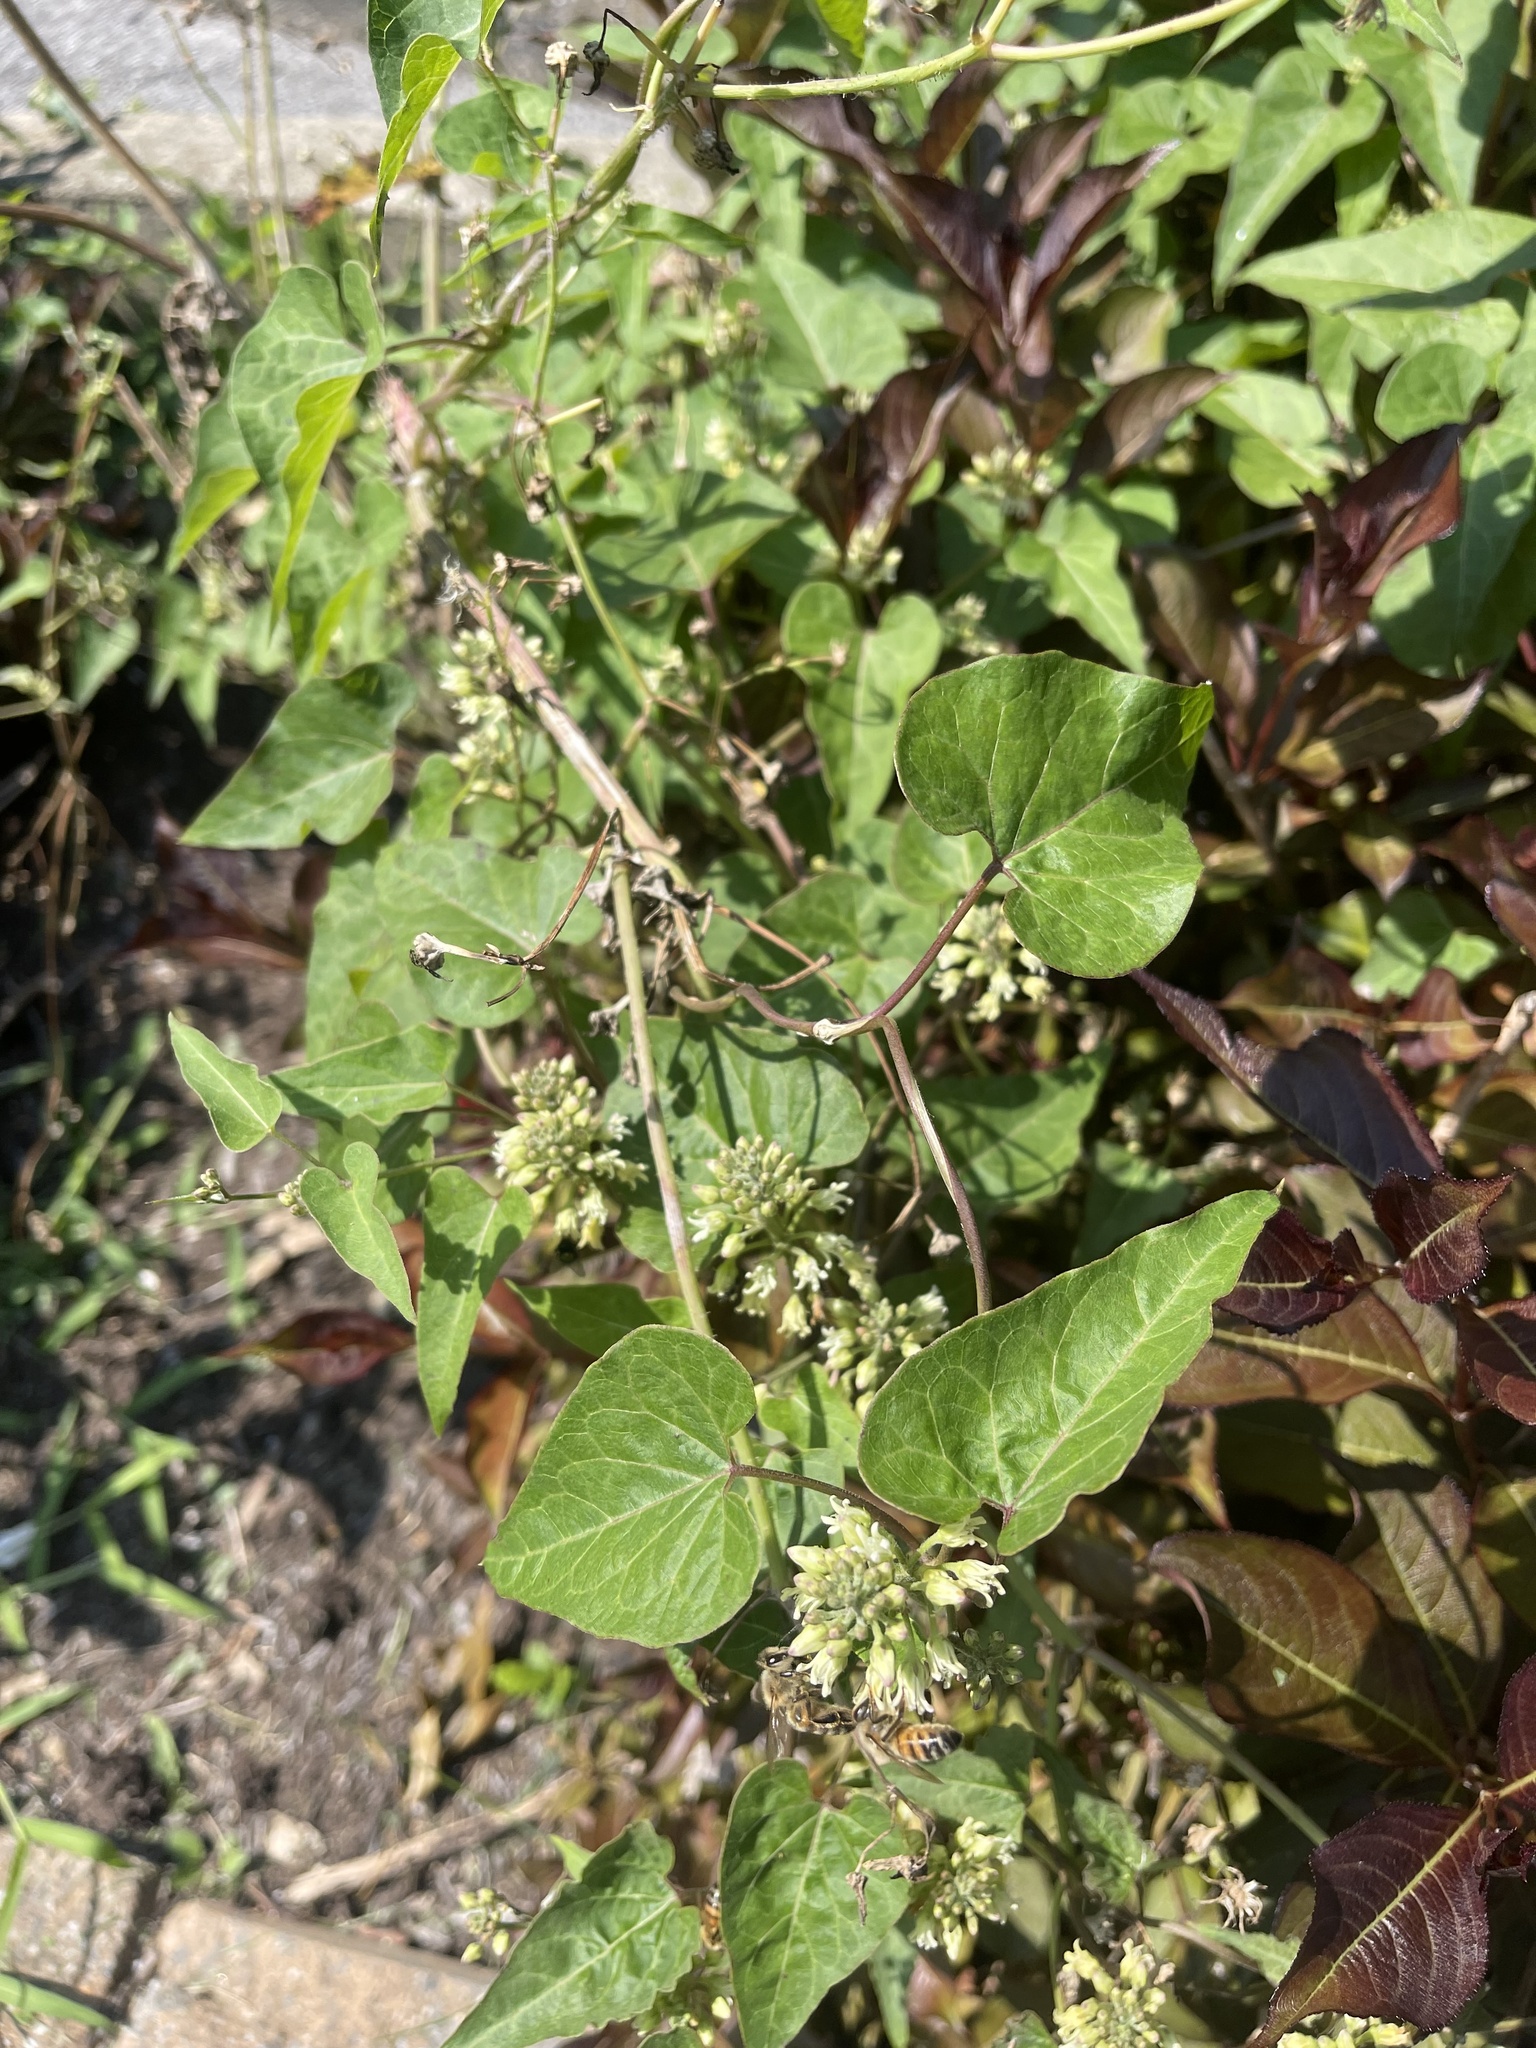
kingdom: Plantae
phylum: Tracheophyta
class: Magnoliopsida
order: Gentianales
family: Apocynaceae
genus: Cynanchum
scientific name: Cynanchum laeve
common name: Sandvine
